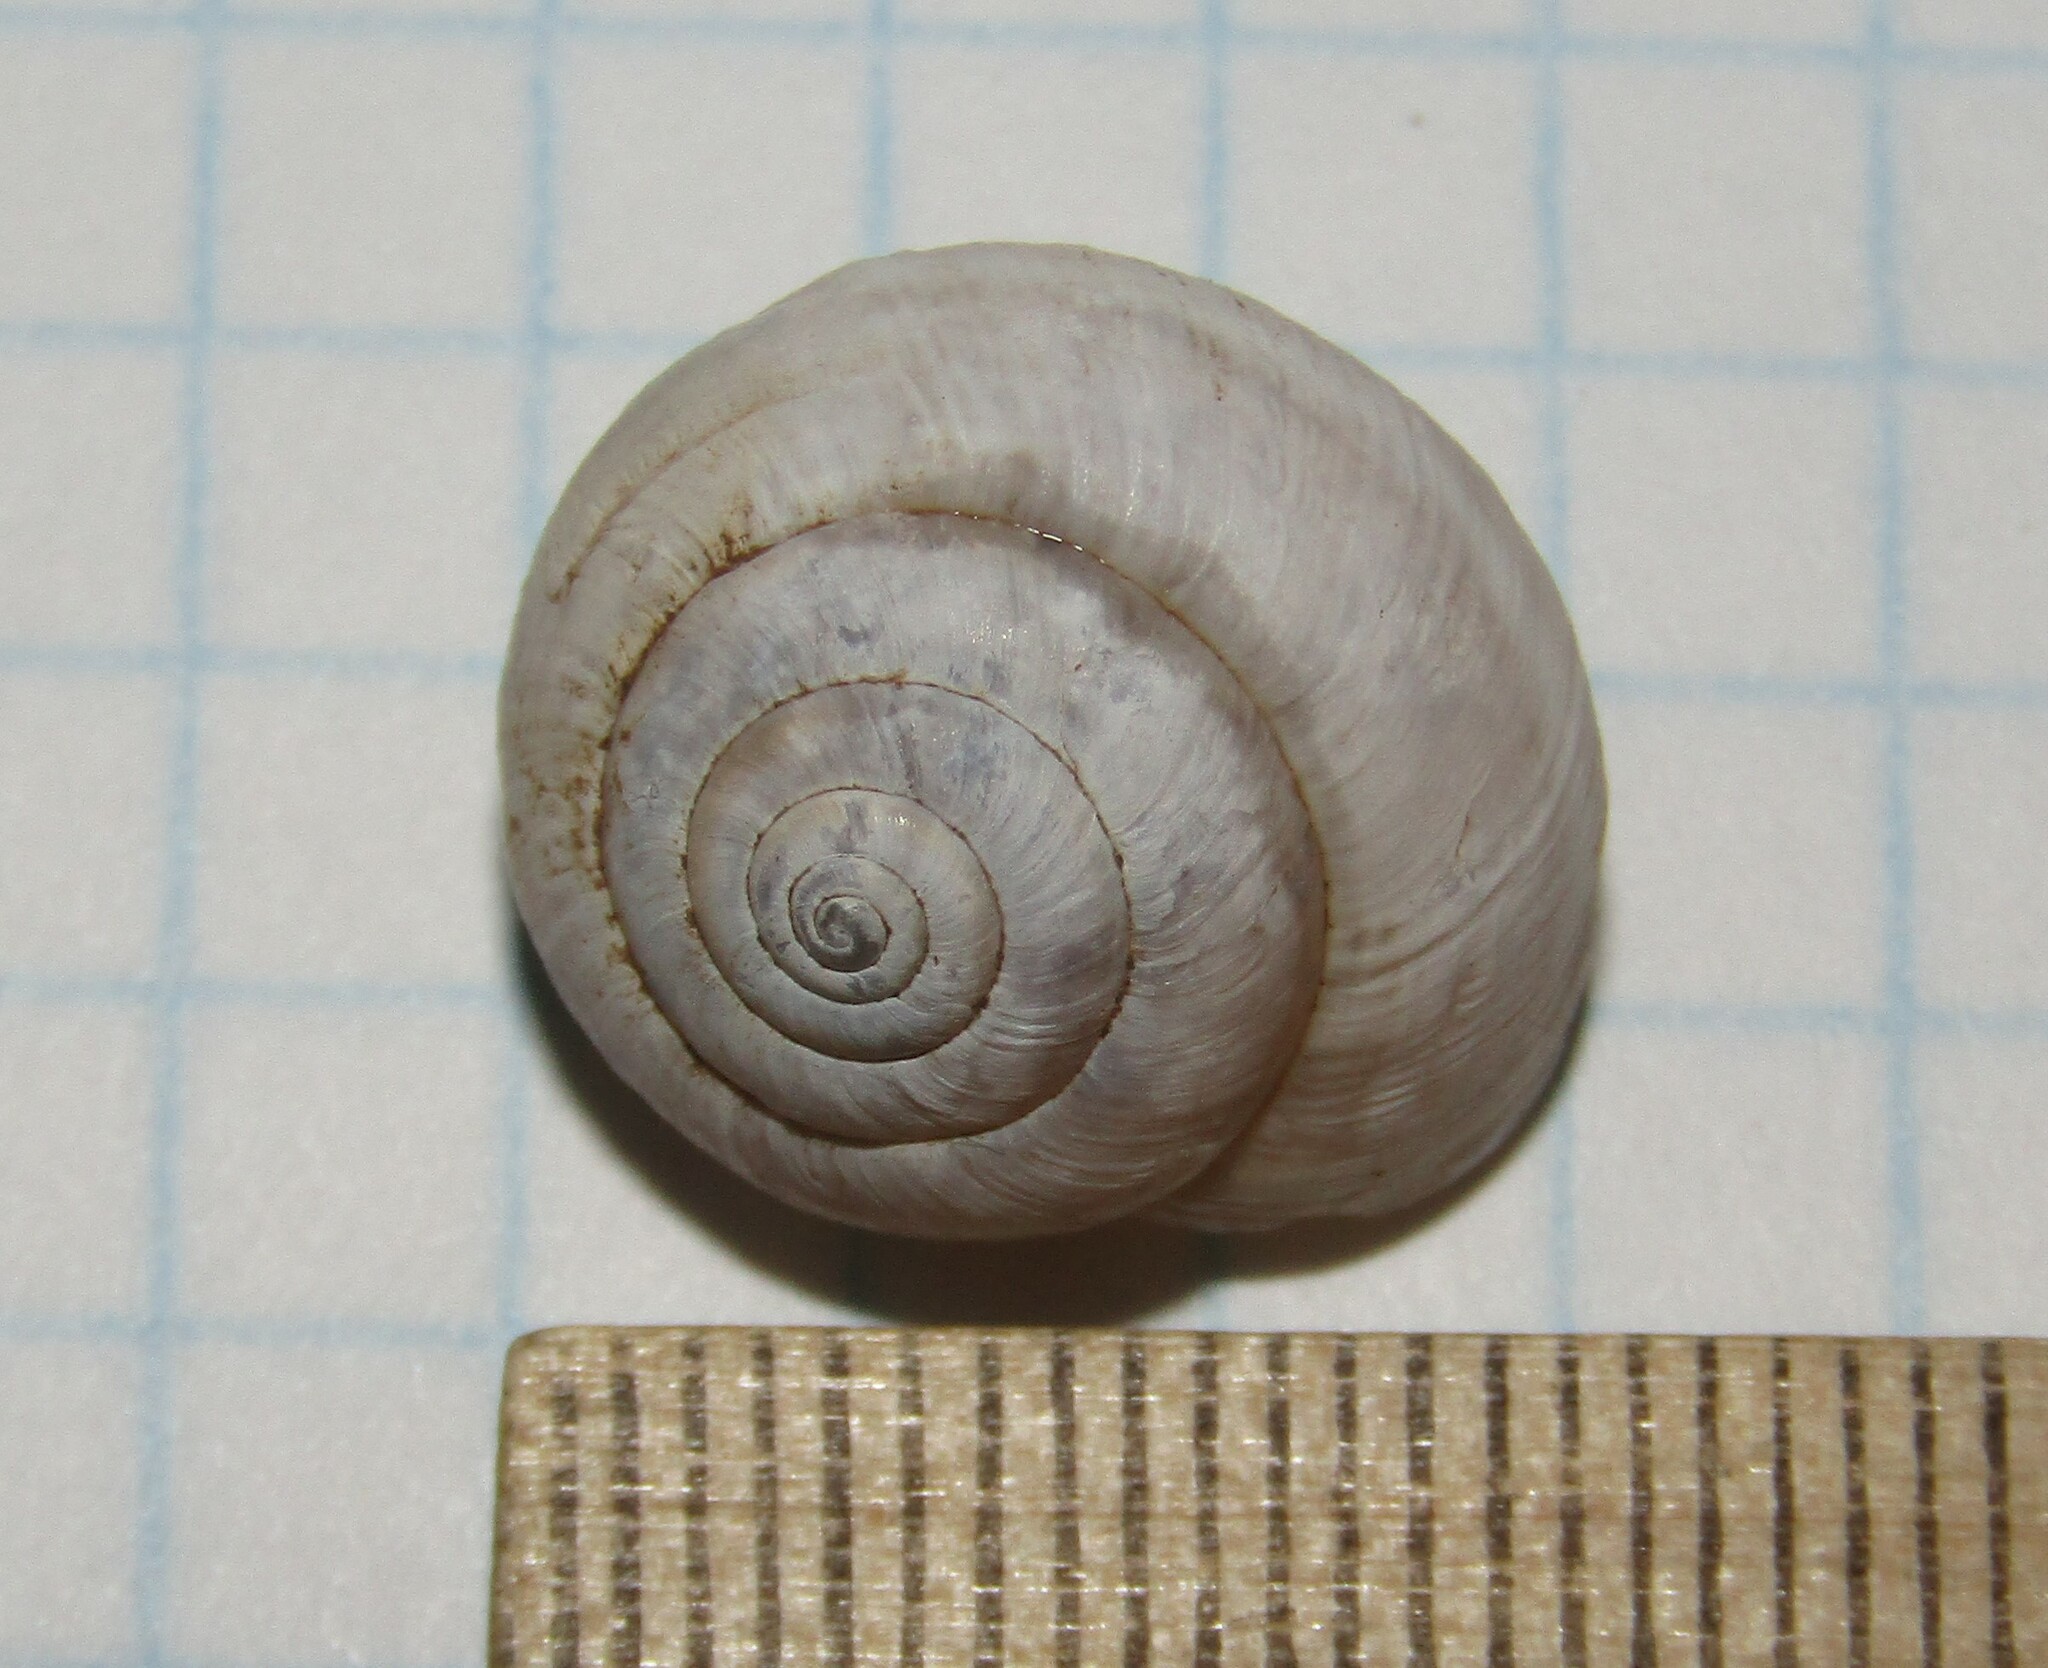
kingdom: Animalia
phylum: Mollusca
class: Gastropoda
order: Stylommatophora
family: Hygromiidae
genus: Harmozica
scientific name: Harmozica ravergiensis
